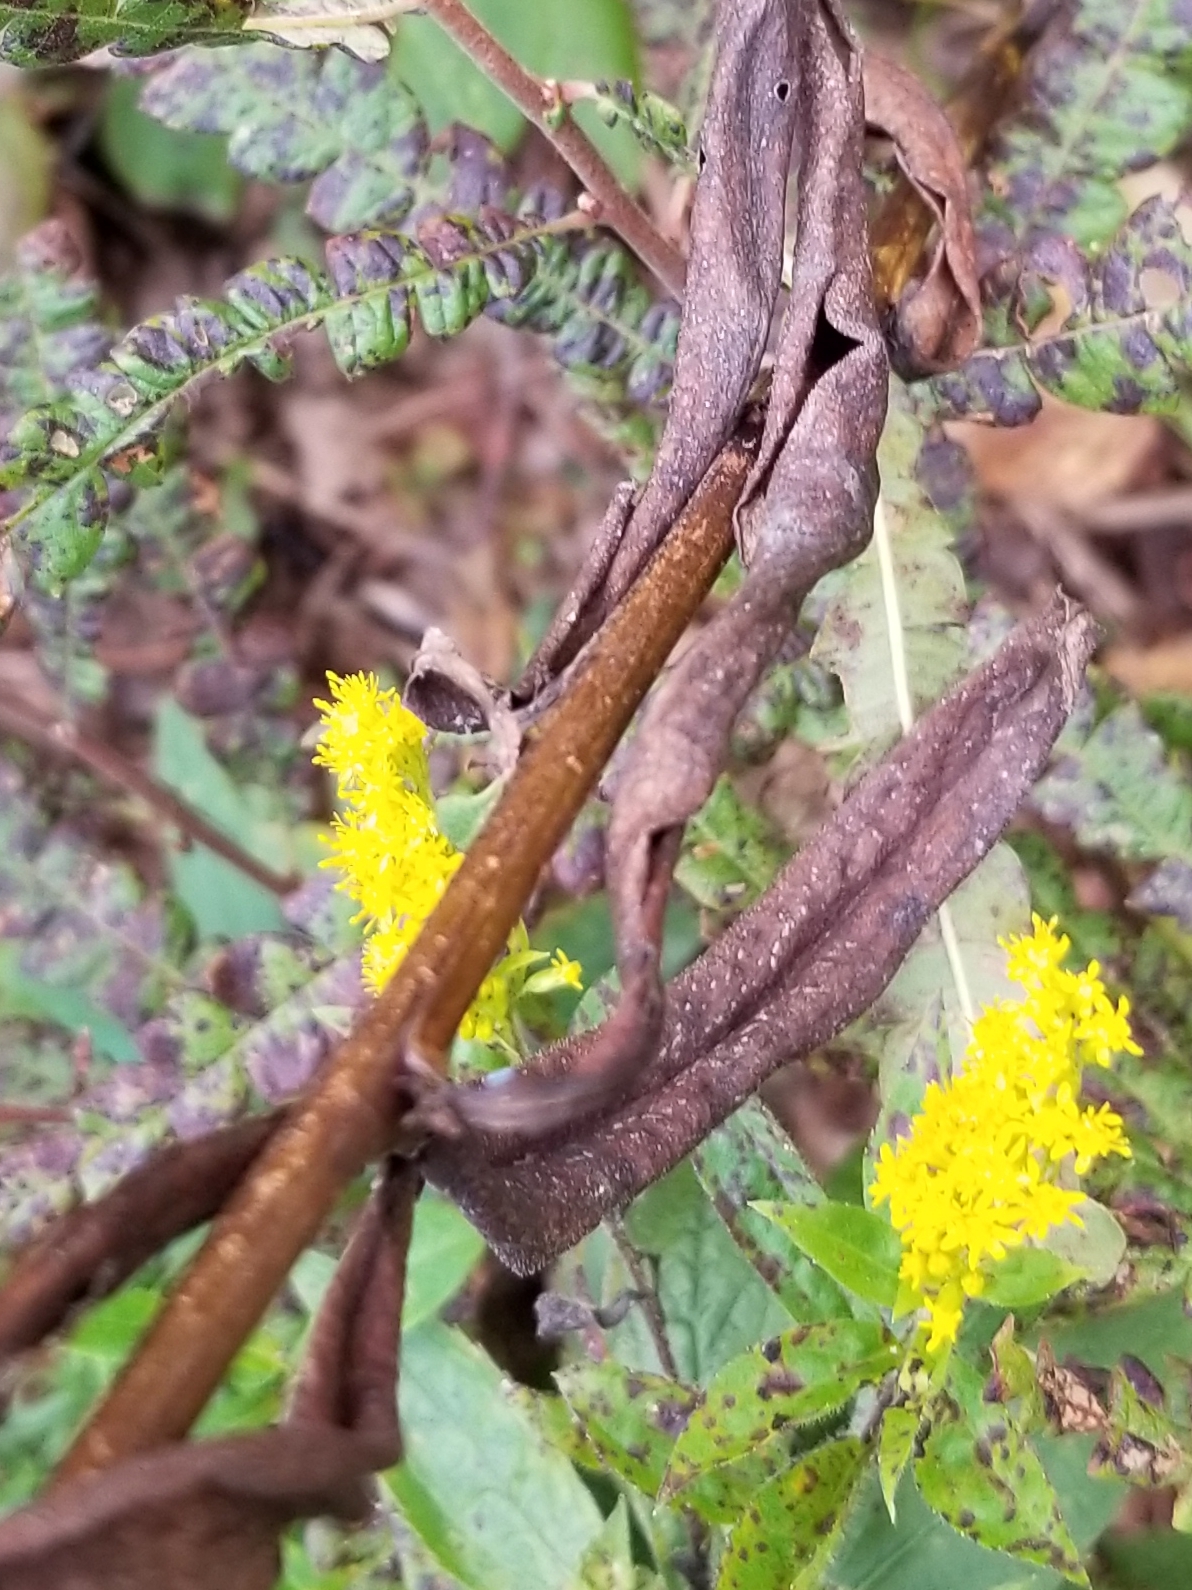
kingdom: Plantae
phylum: Tracheophyta
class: Magnoliopsida
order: Asterales
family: Asteraceae
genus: Symphyotrichum
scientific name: Symphyotrichum lanceolatum
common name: Panicled aster
